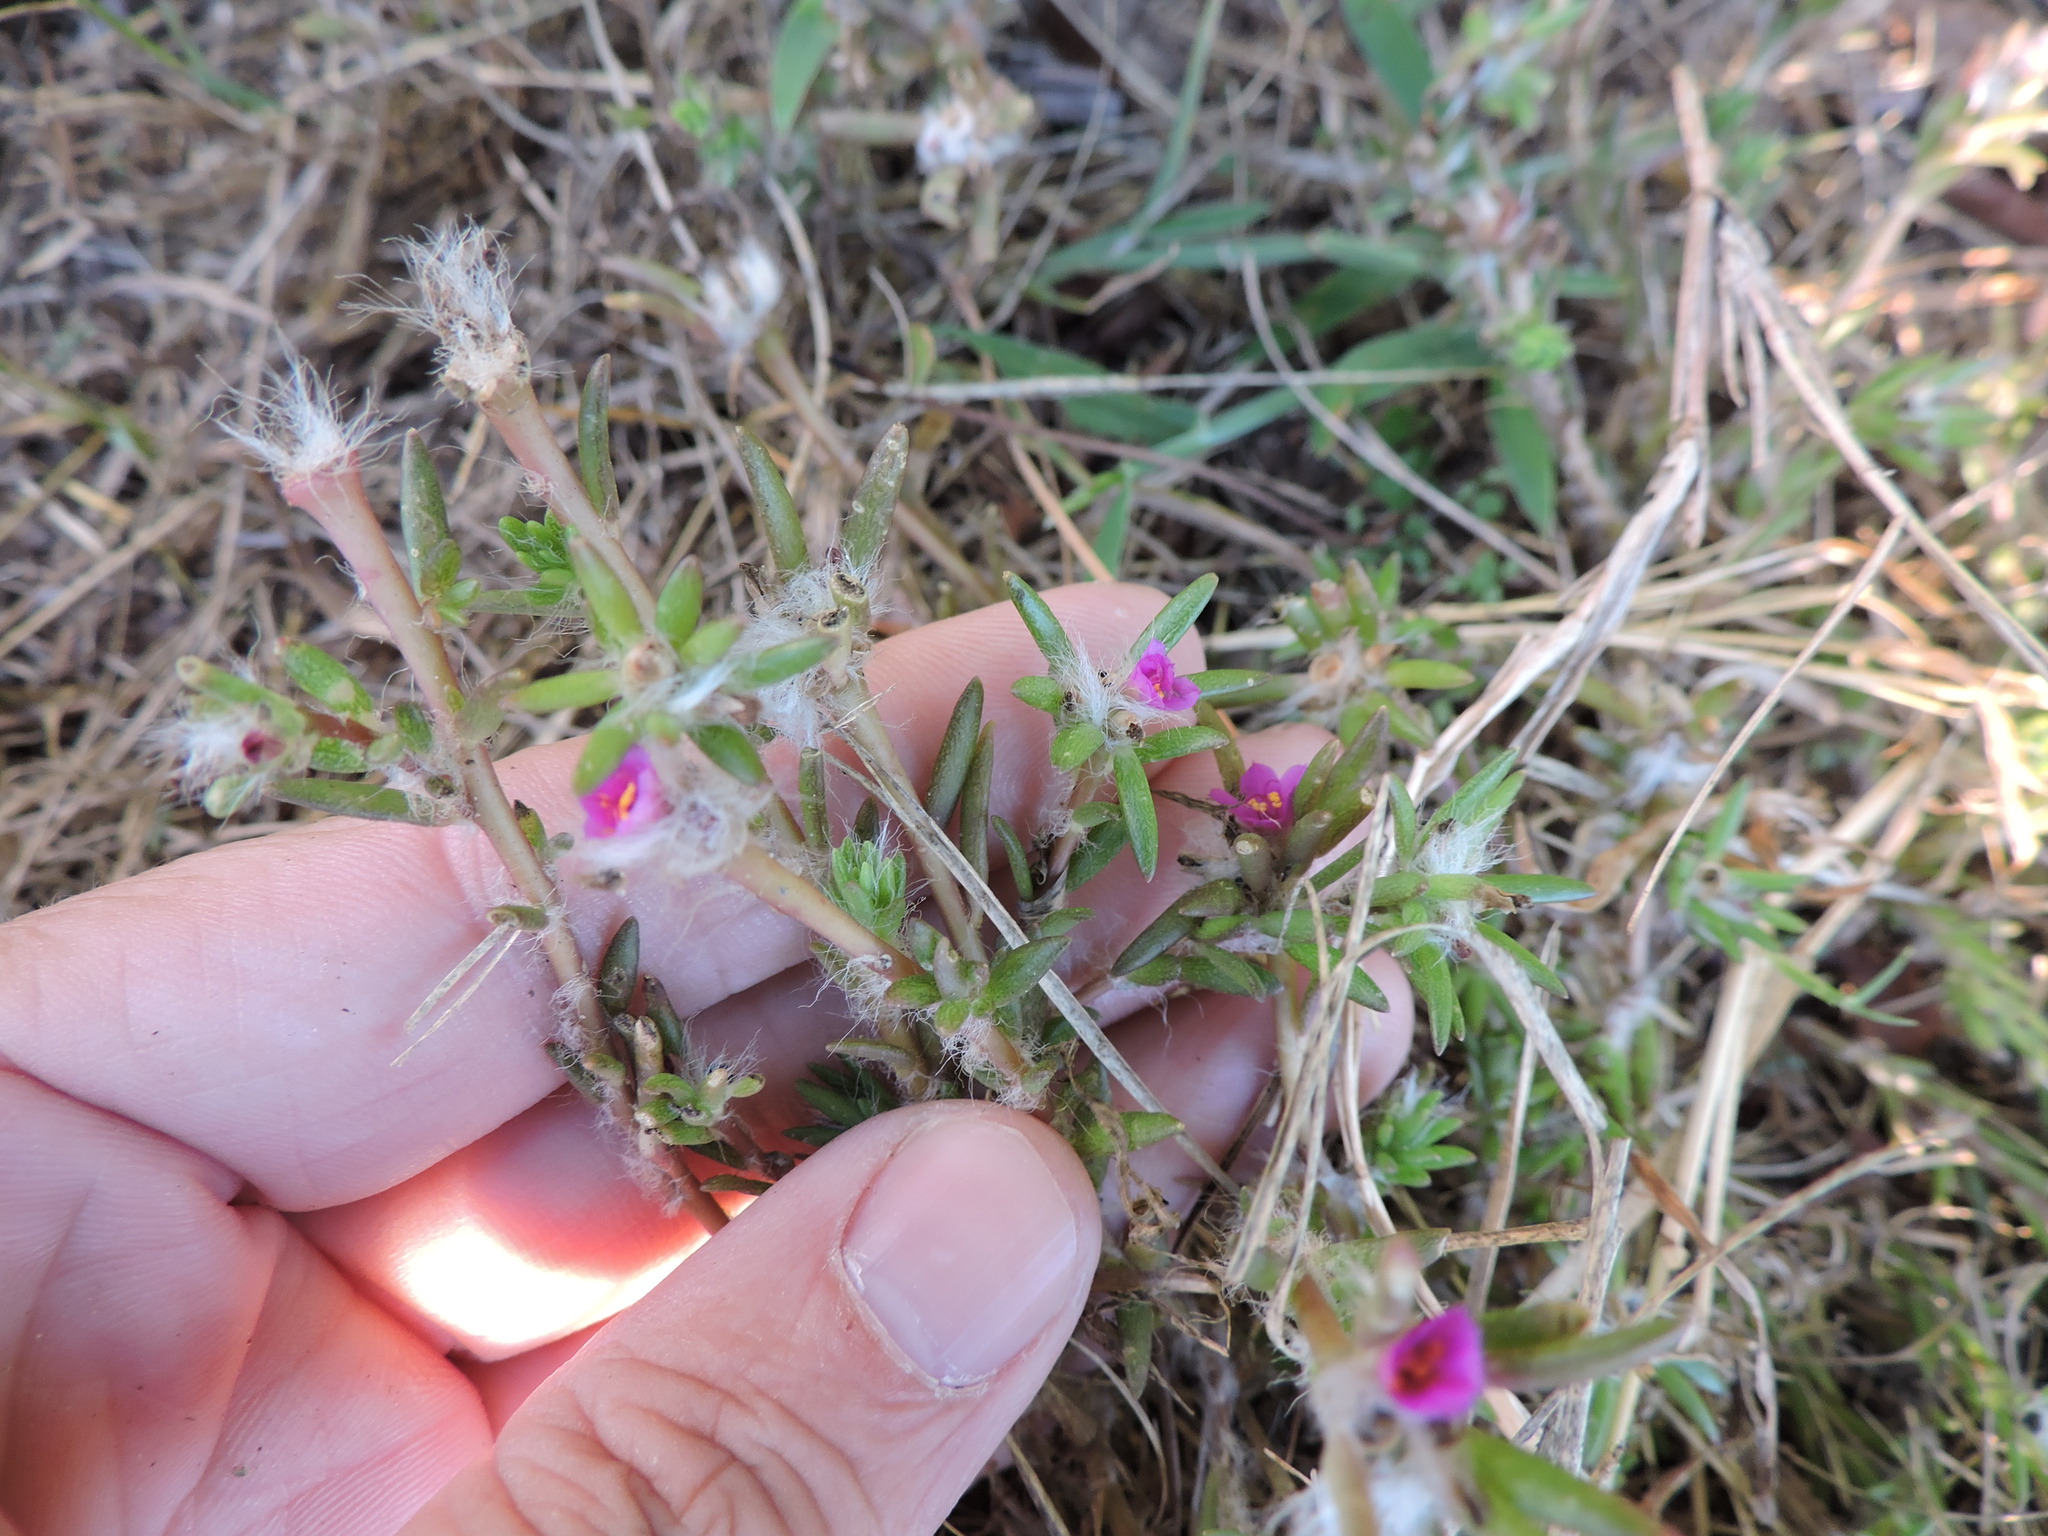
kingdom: Plantae
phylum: Tracheophyta
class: Magnoliopsida
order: Caryophyllales
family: Portulacaceae
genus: Portulaca
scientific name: Portulaca pilosa
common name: Kiss me quick
